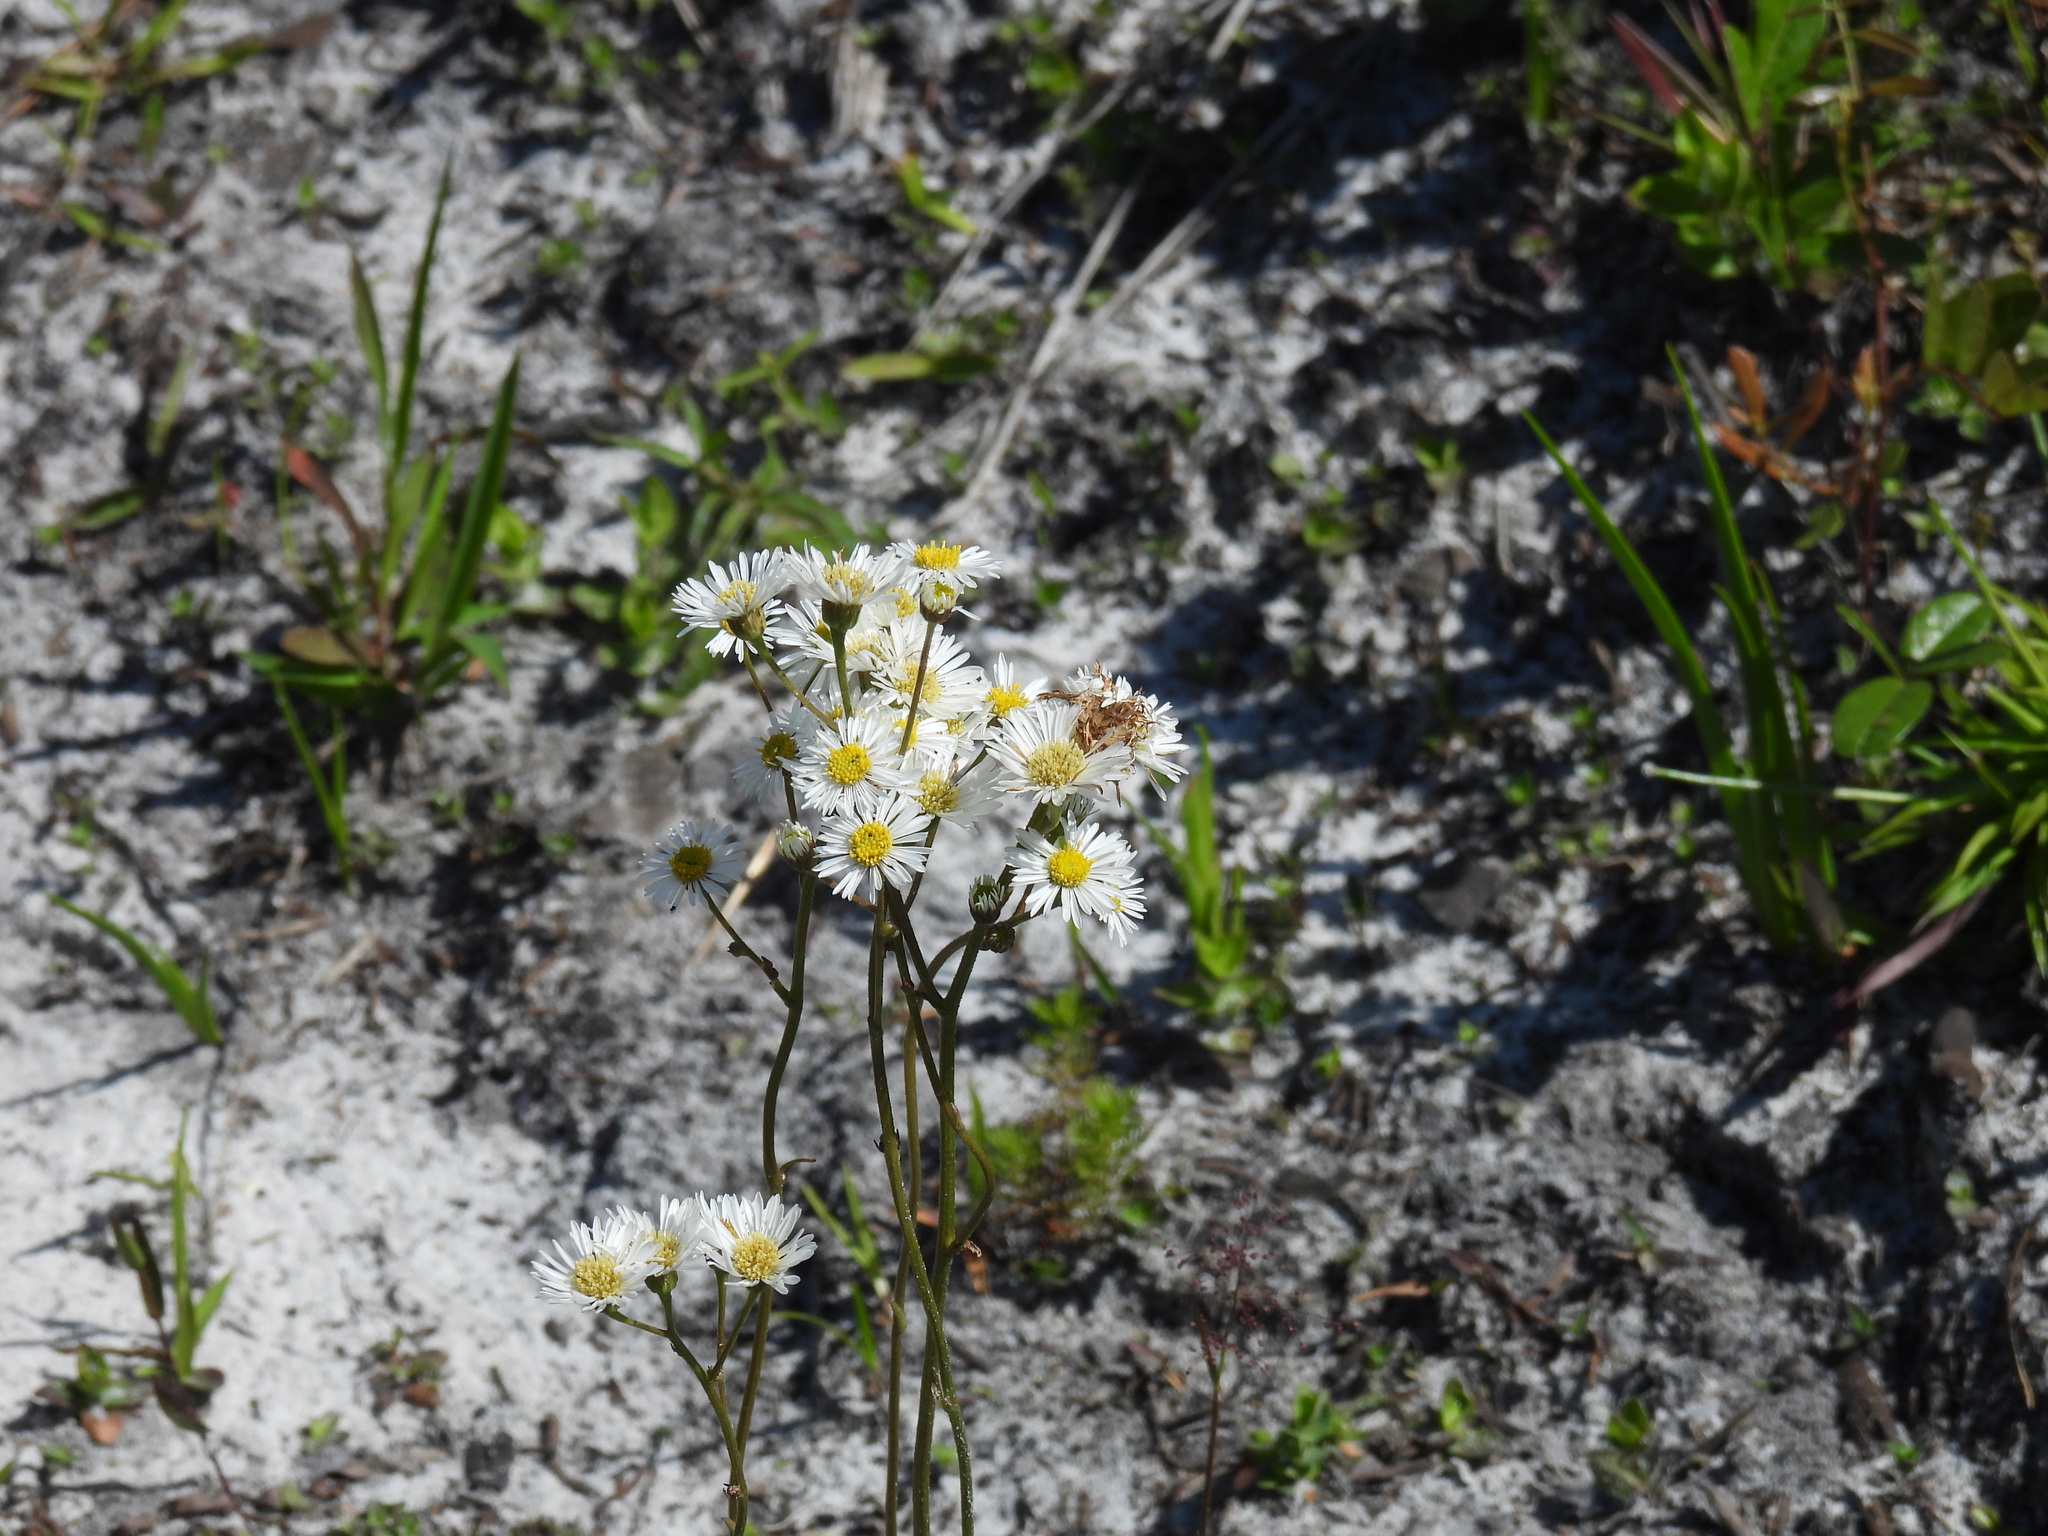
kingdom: Plantae
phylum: Tracheophyta
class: Magnoliopsida
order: Asterales
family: Asteraceae
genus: Erigeron
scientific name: Erigeron vernus
